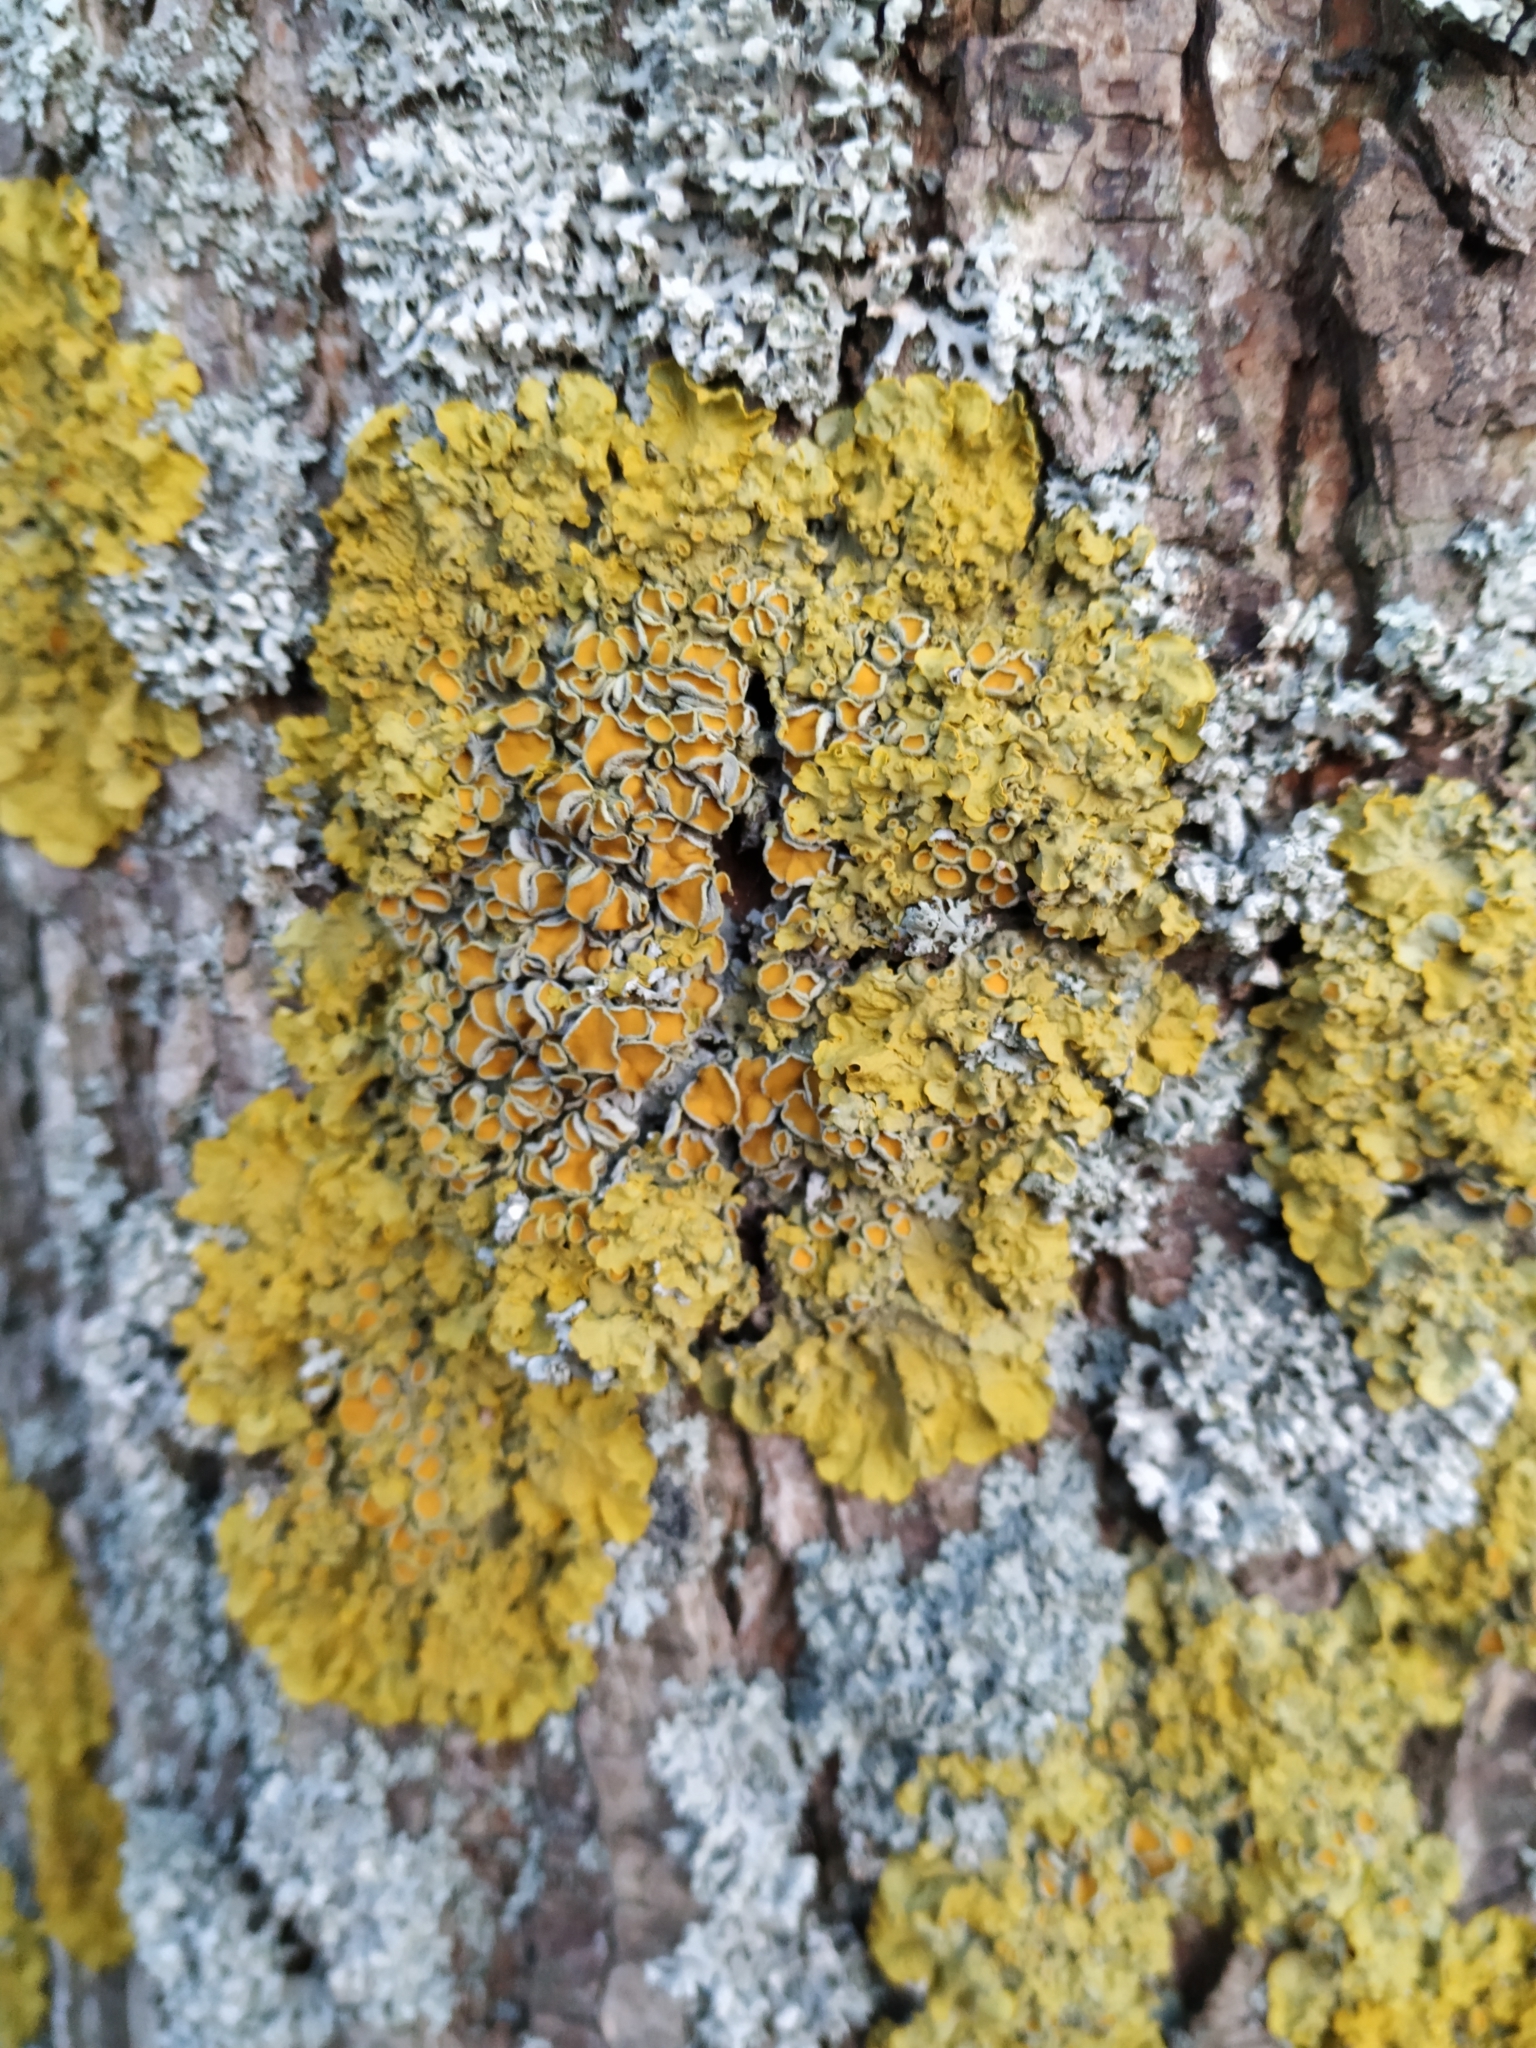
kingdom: Fungi
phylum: Ascomycota
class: Lecanoromycetes
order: Teloschistales
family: Teloschistaceae
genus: Xanthoria
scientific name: Xanthoria parietina
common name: Common orange lichen
